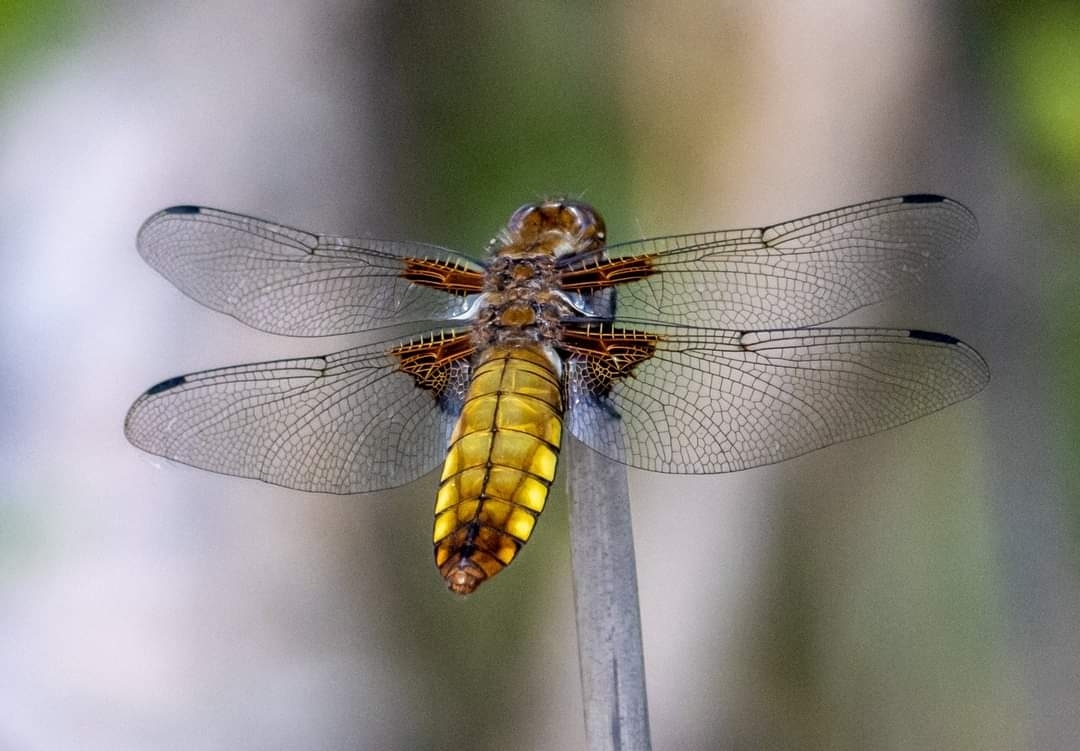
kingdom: Animalia
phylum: Arthropoda
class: Insecta
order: Odonata
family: Libellulidae
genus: Libellula
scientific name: Libellula depressa
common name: Broad-bodied chaser
